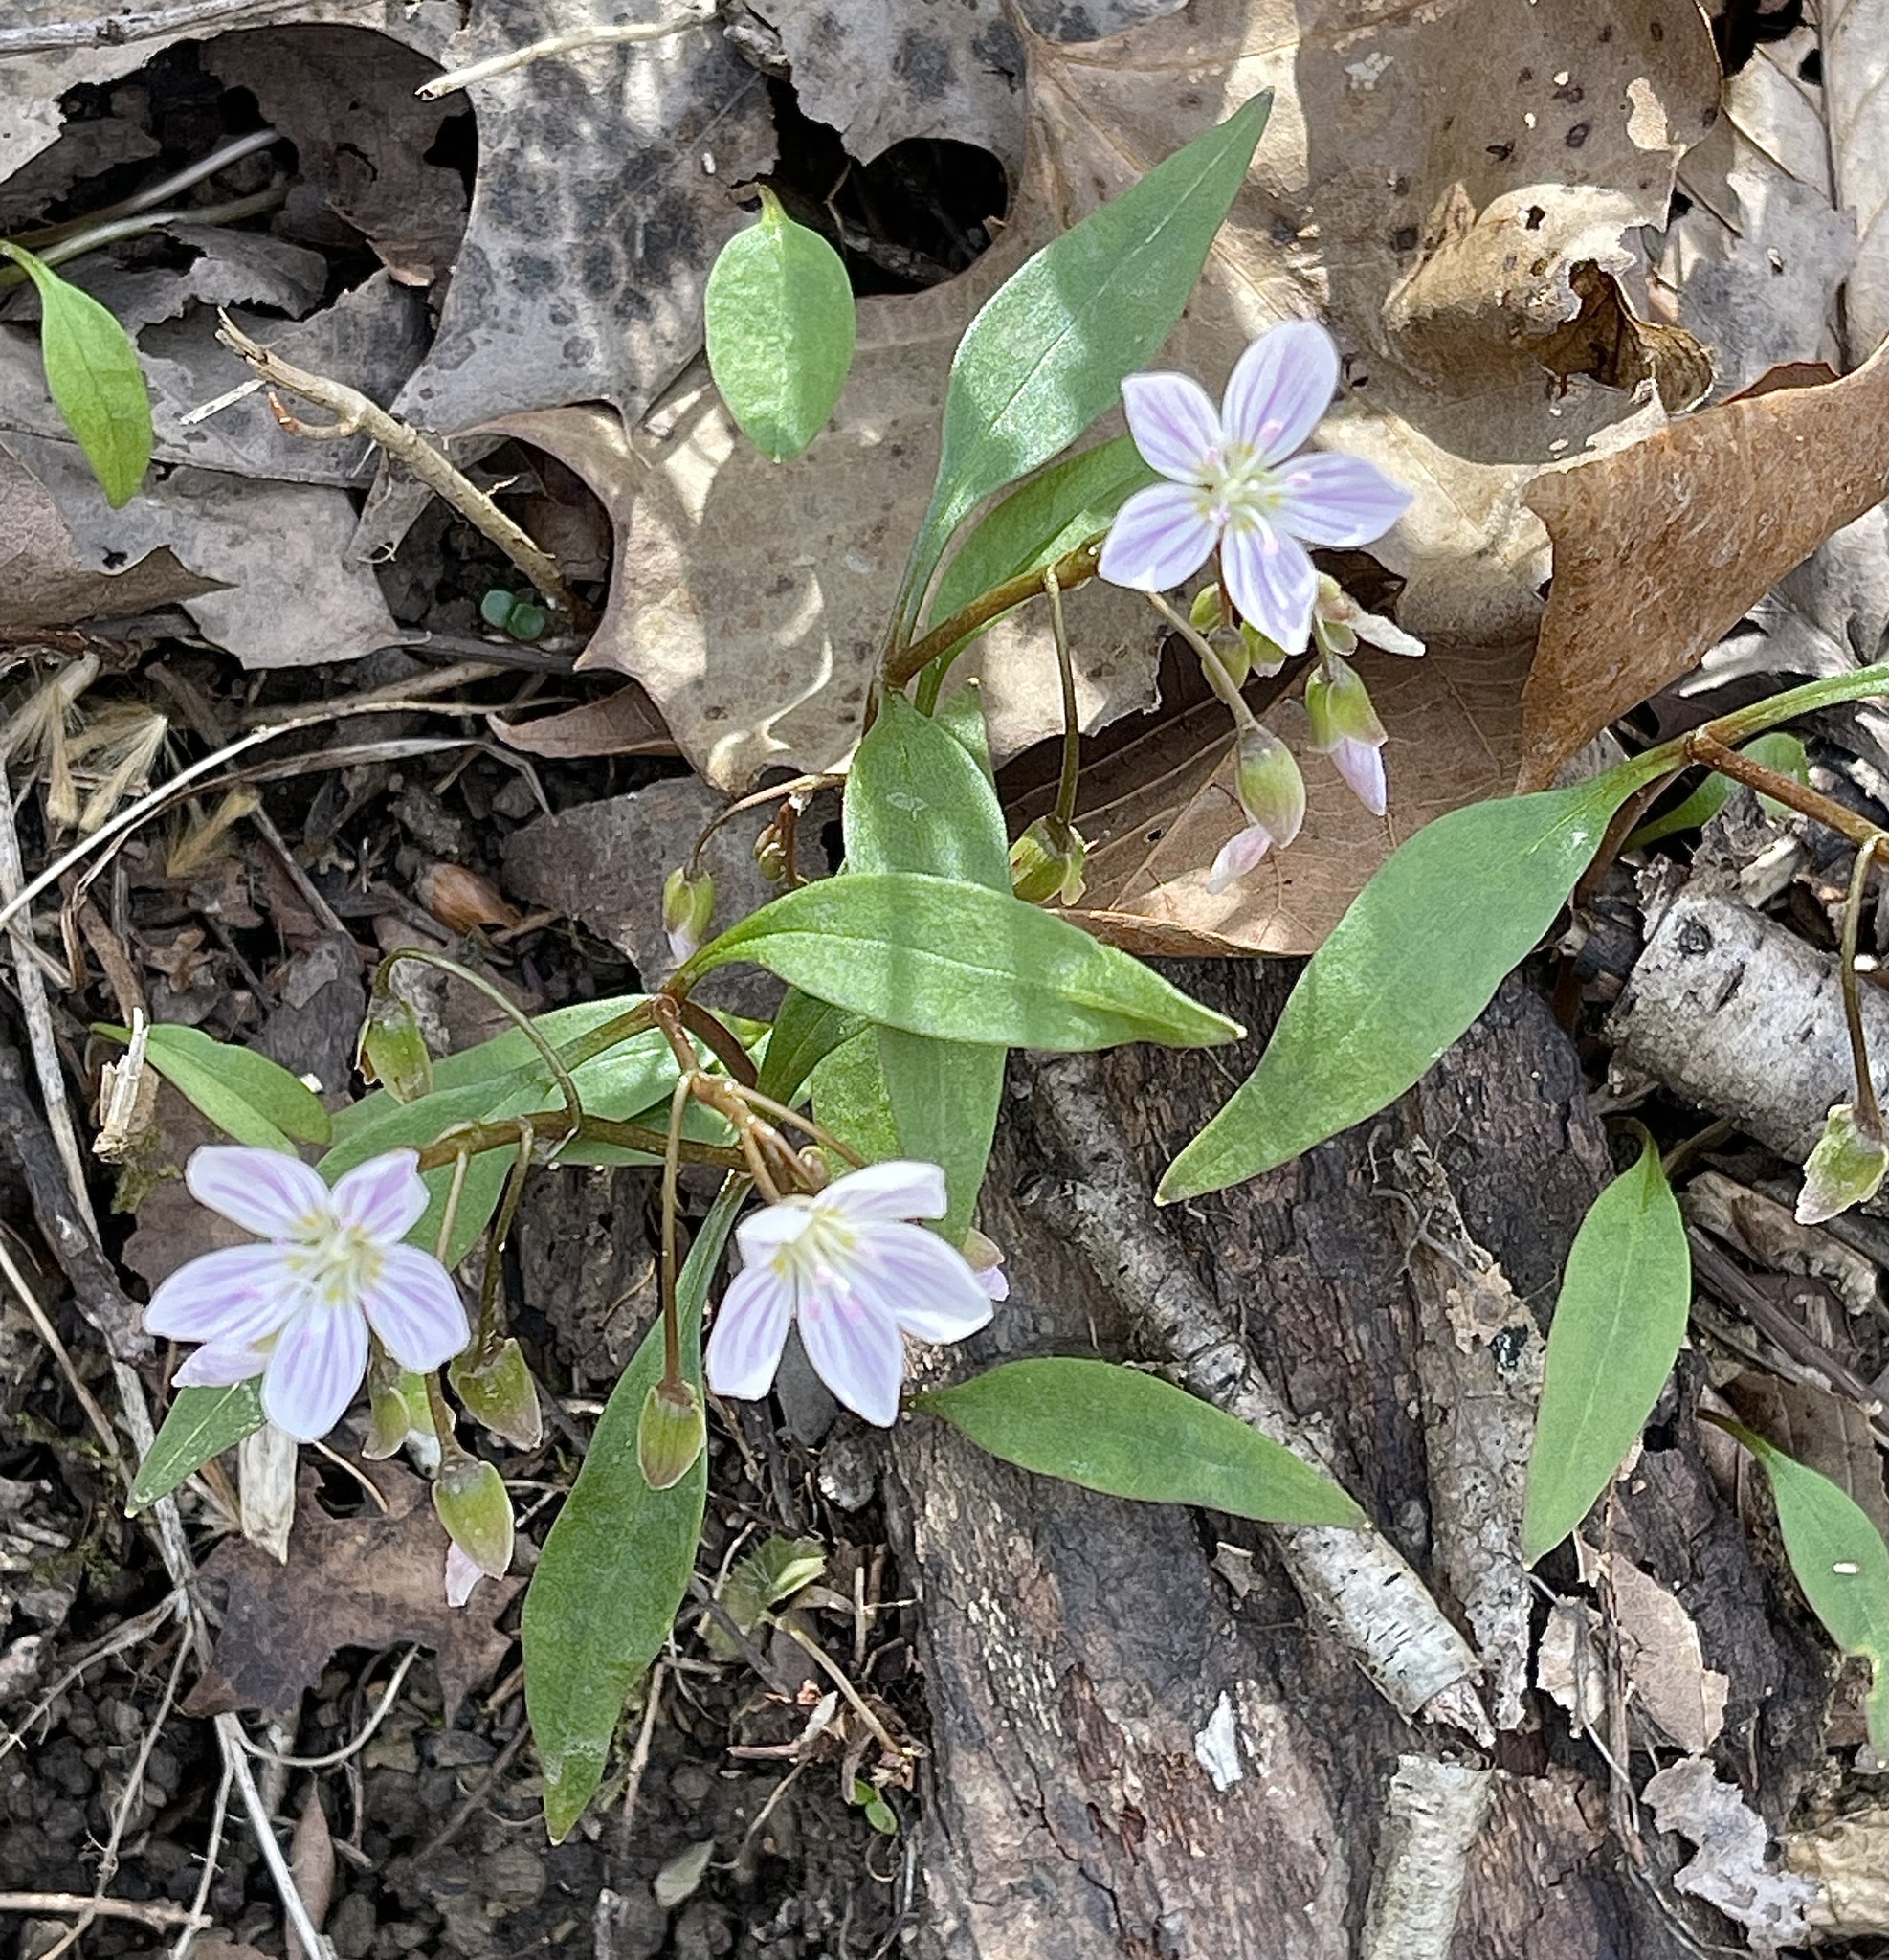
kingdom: Plantae
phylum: Tracheophyta
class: Magnoliopsida
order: Caryophyllales
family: Montiaceae
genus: Claytonia
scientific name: Claytonia caroliniana
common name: Carolina spring beauty
